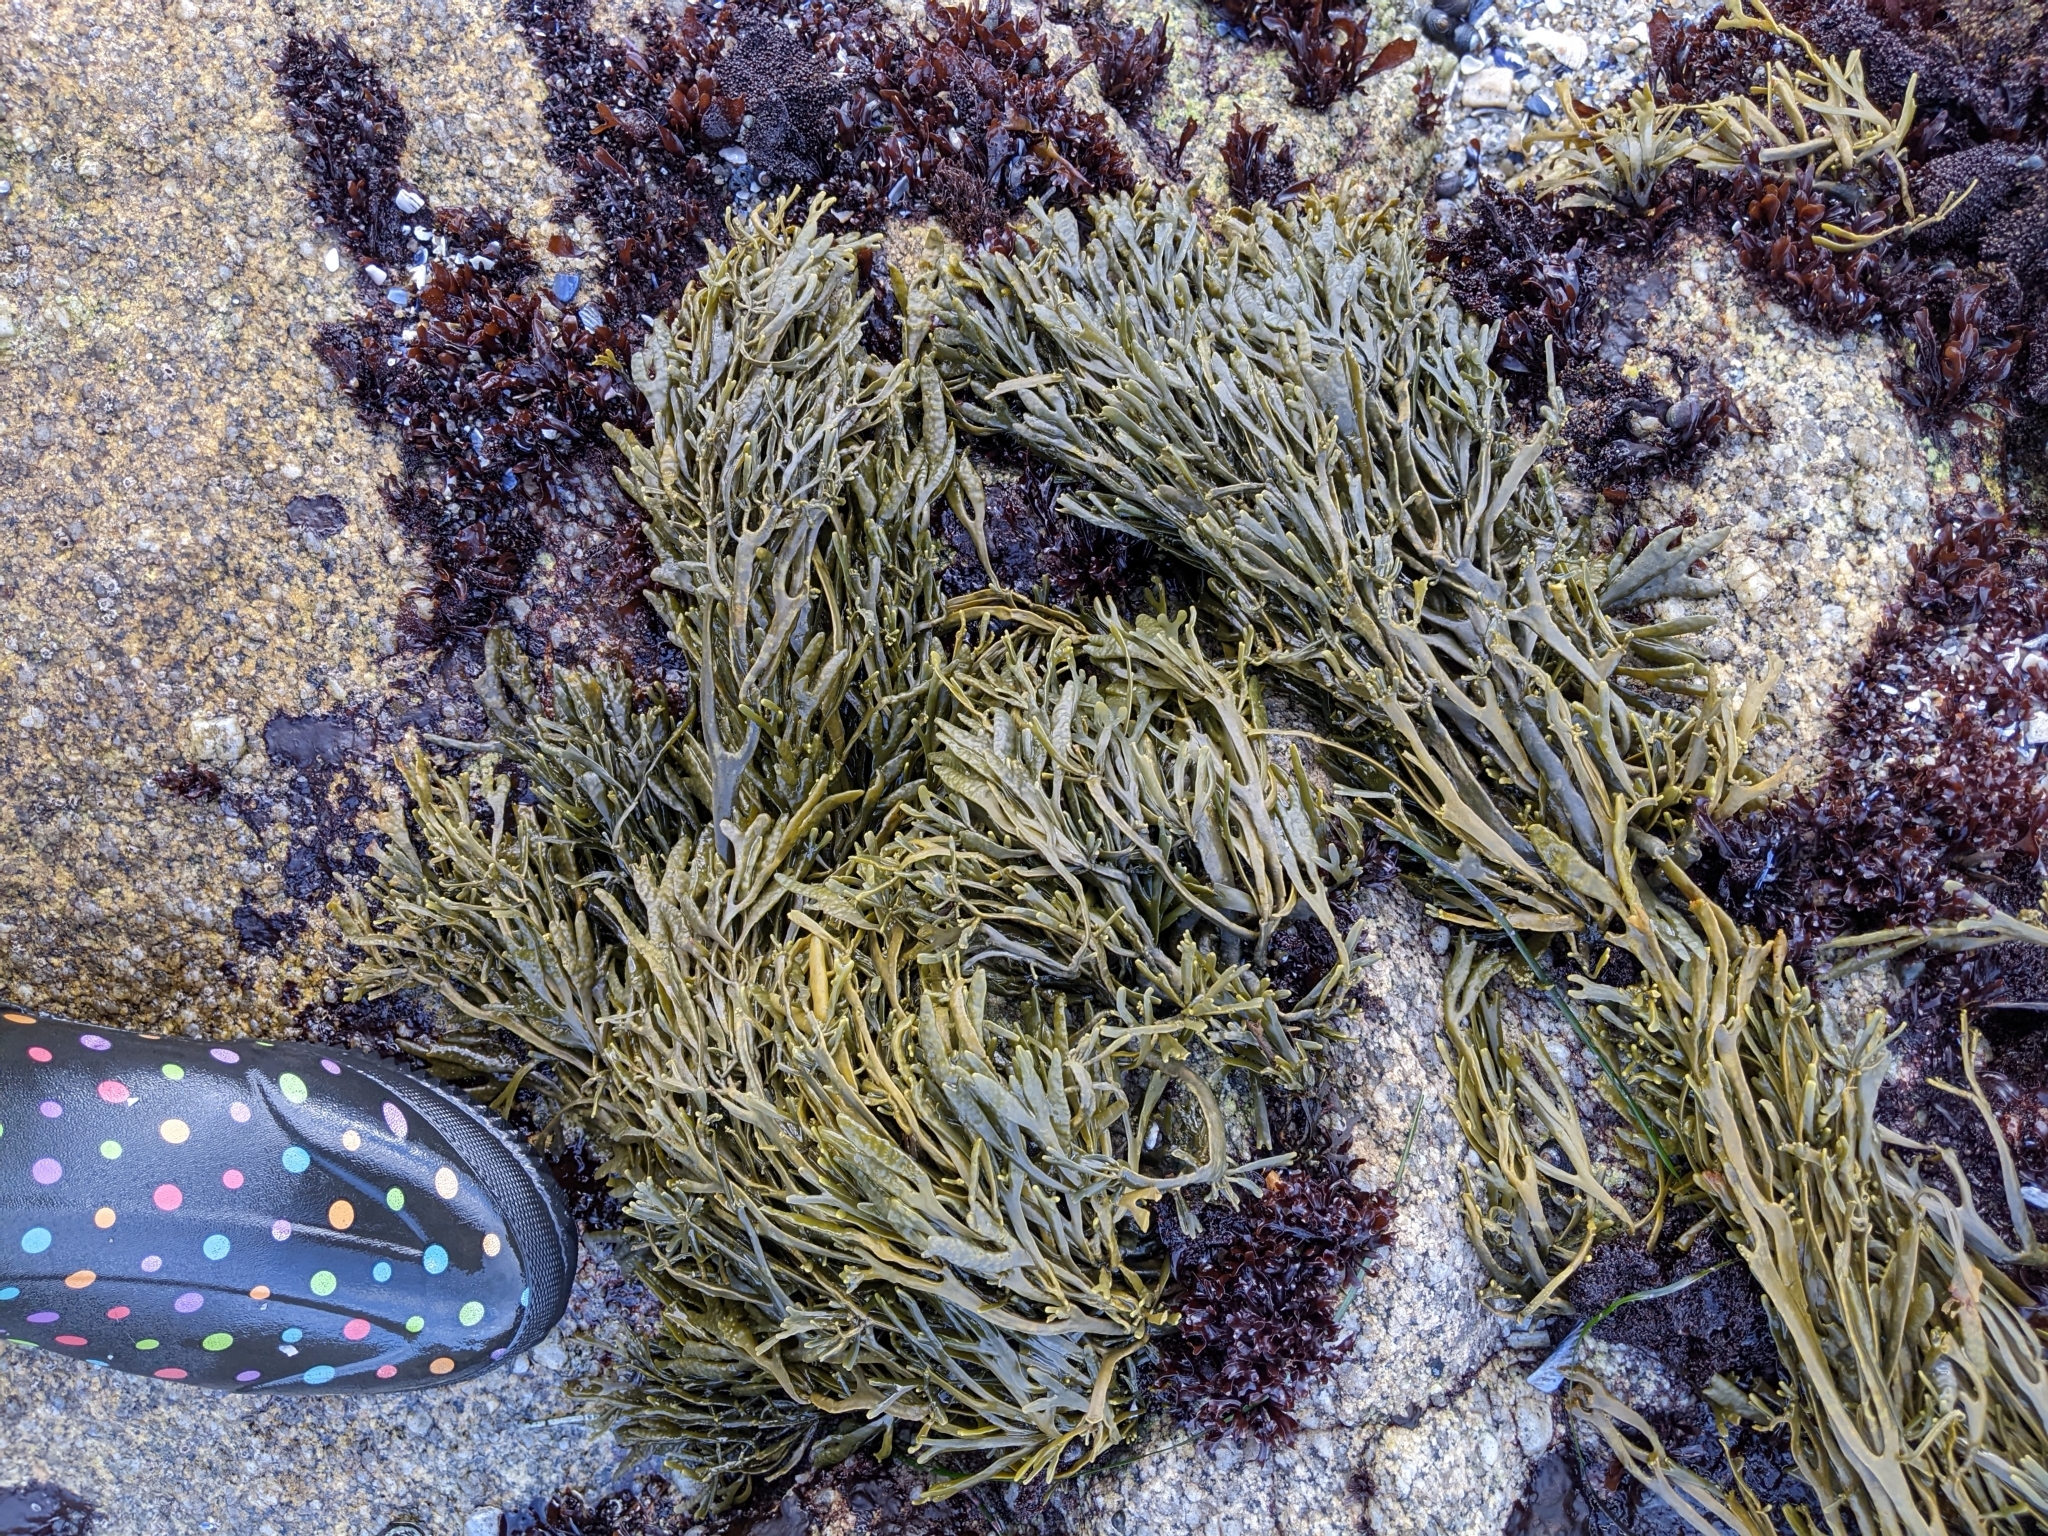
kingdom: Chromista
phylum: Ochrophyta
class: Phaeophyceae
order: Fucales
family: Fucaceae
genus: Silvetia
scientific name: Silvetia
